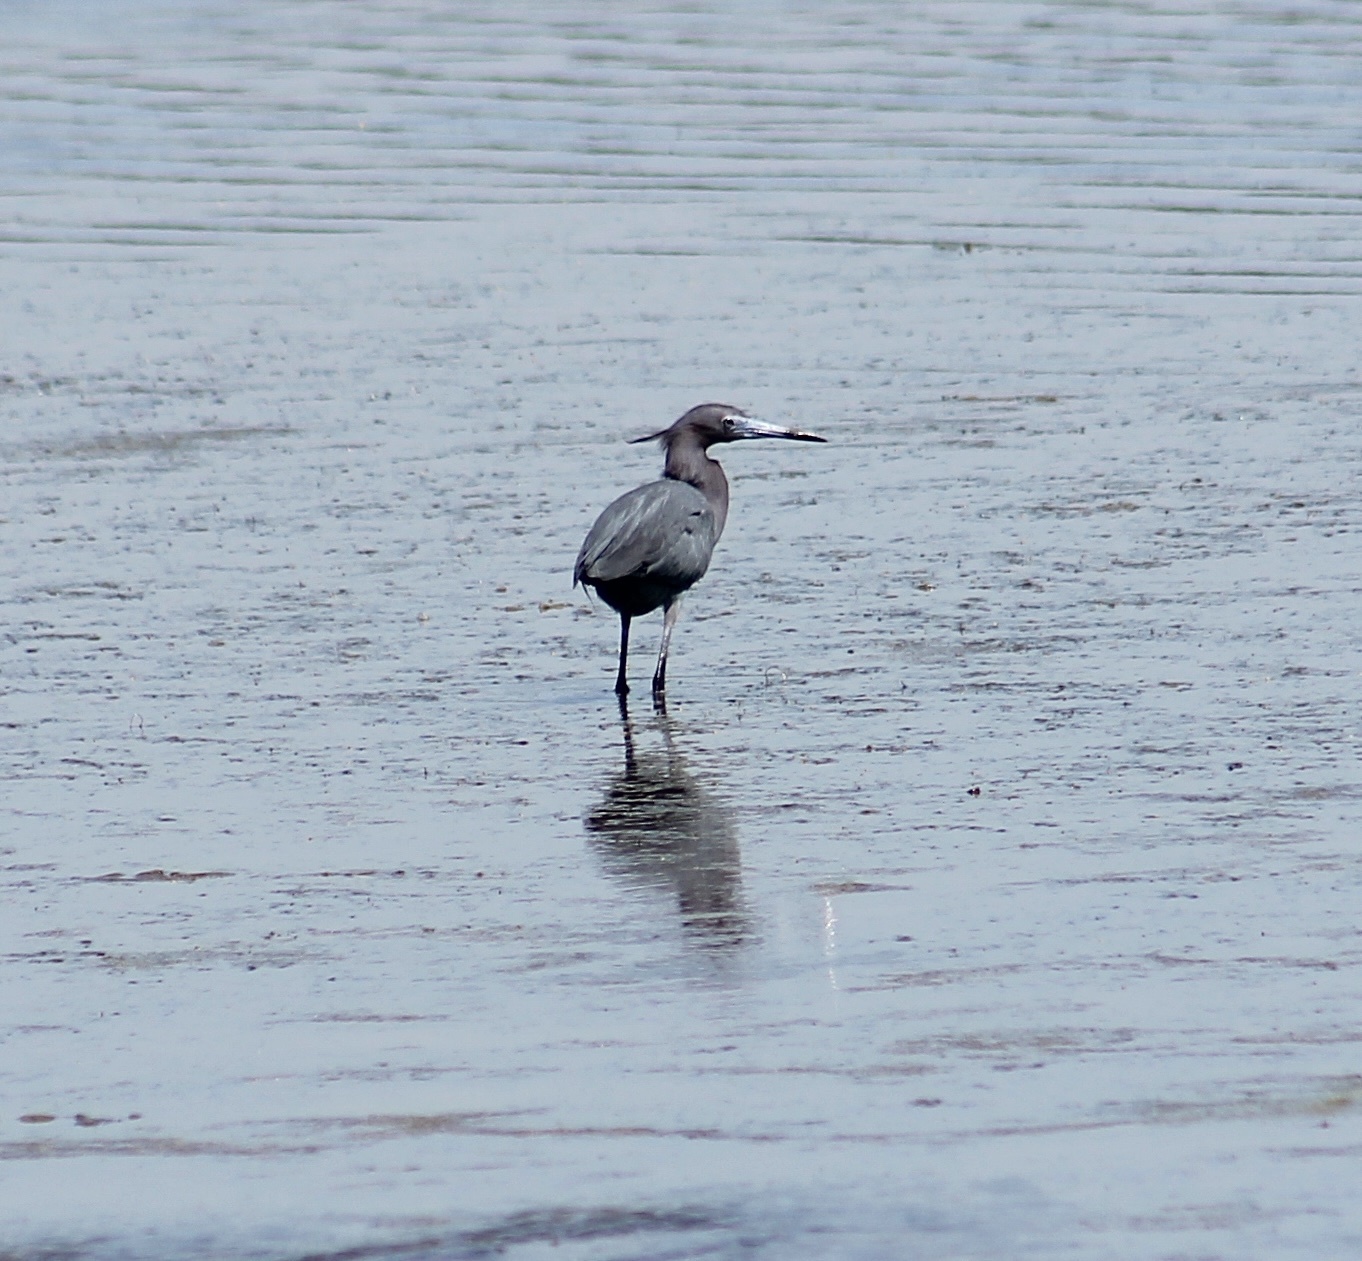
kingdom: Animalia
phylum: Chordata
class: Aves
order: Pelecaniformes
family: Ardeidae
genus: Egretta
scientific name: Egretta caerulea
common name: Little blue heron
